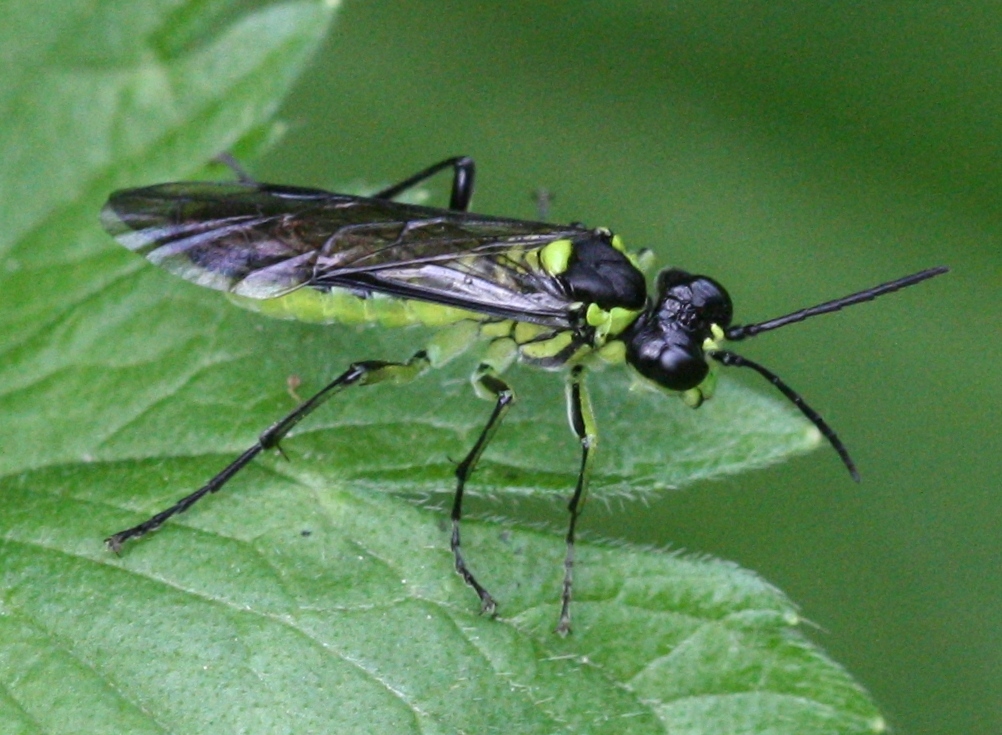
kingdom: Animalia
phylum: Arthropoda
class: Insecta
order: Hymenoptera
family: Tenthredinidae
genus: Tenthredo
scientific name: Tenthredo mesomela
